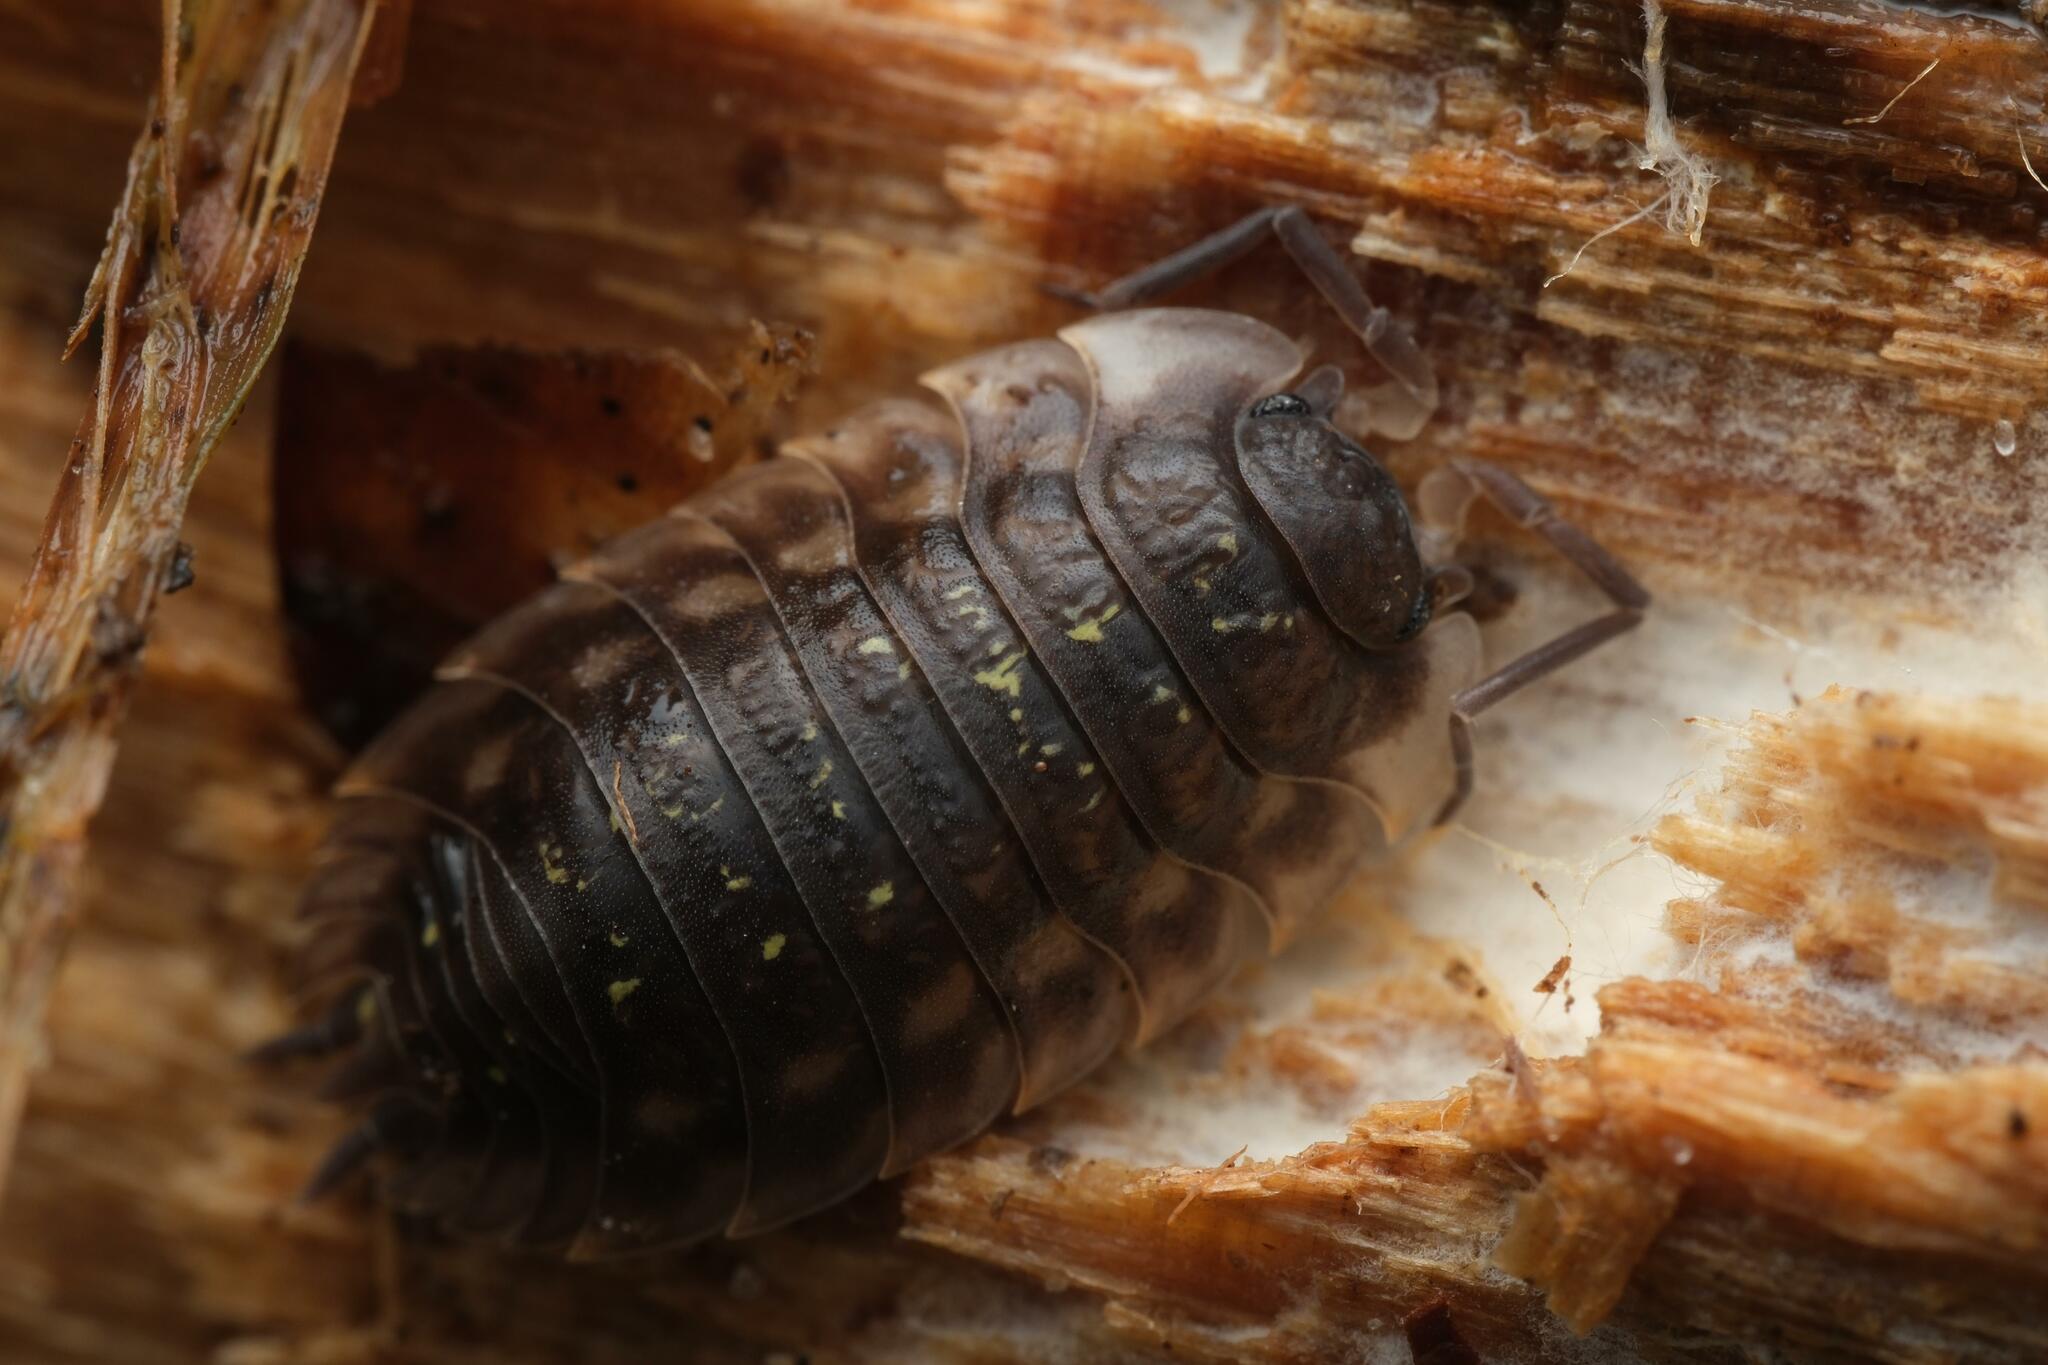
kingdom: Animalia
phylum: Arthropoda
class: Malacostraca
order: Isopoda
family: Oniscidae
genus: Oniscus
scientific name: Oniscus asellus
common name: Common shiny woodlouse
